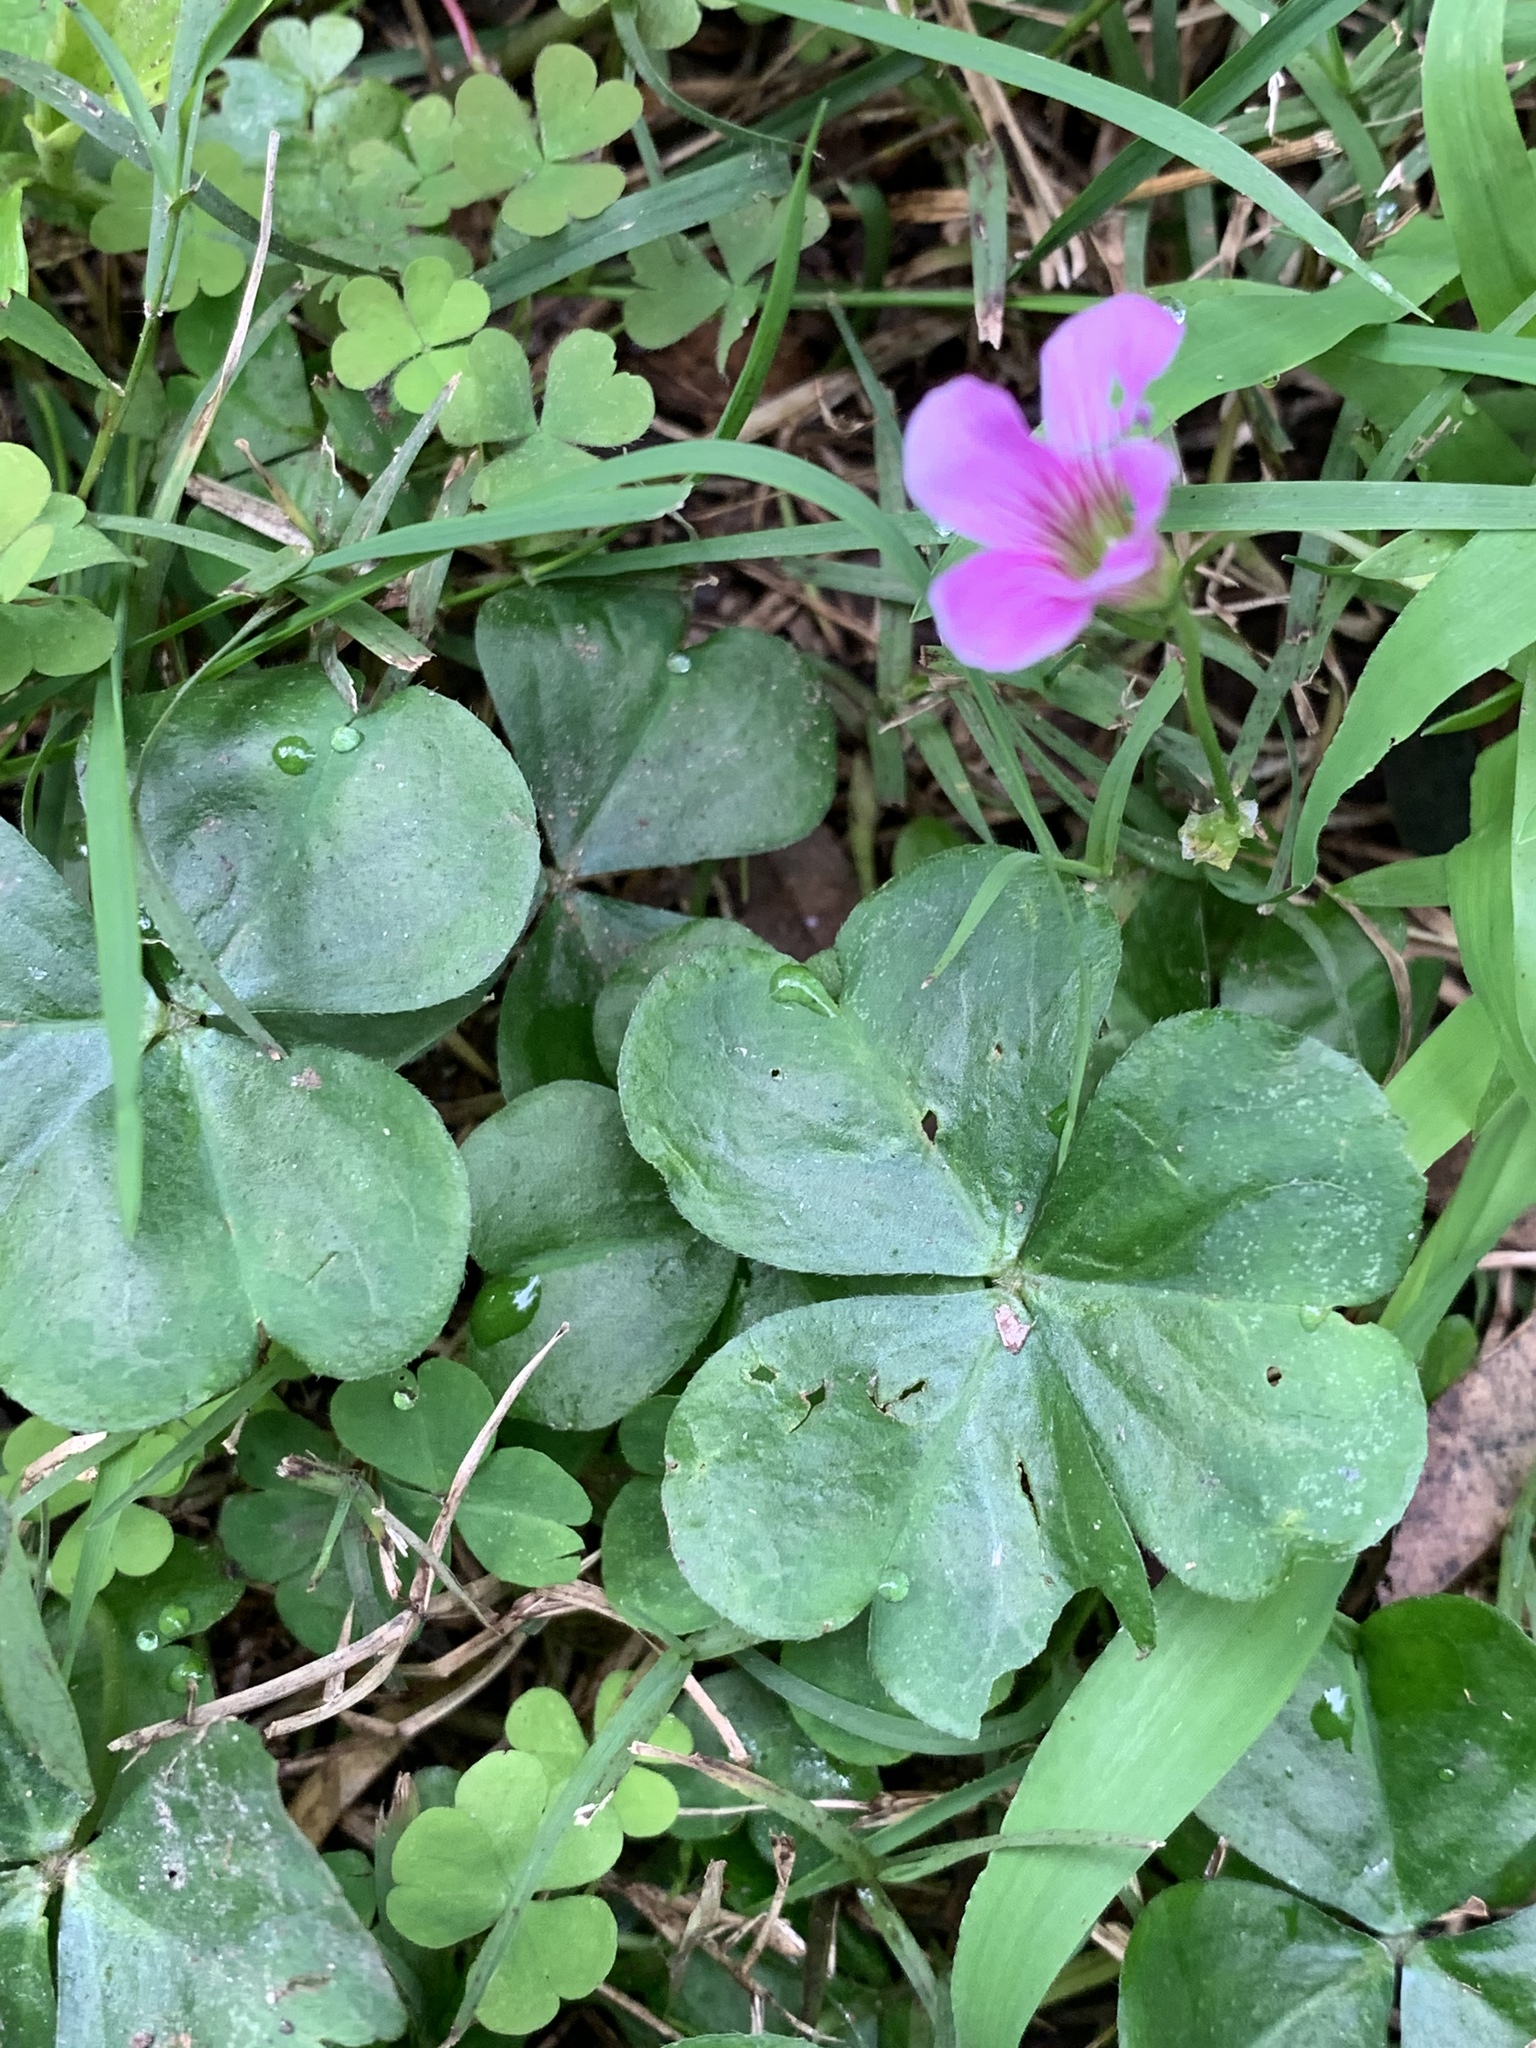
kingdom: Plantae
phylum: Tracheophyta
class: Magnoliopsida
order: Oxalidales
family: Oxalidaceae
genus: Oxalis
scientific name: Oxalis debilis
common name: Large-flowered pink-sorrel
